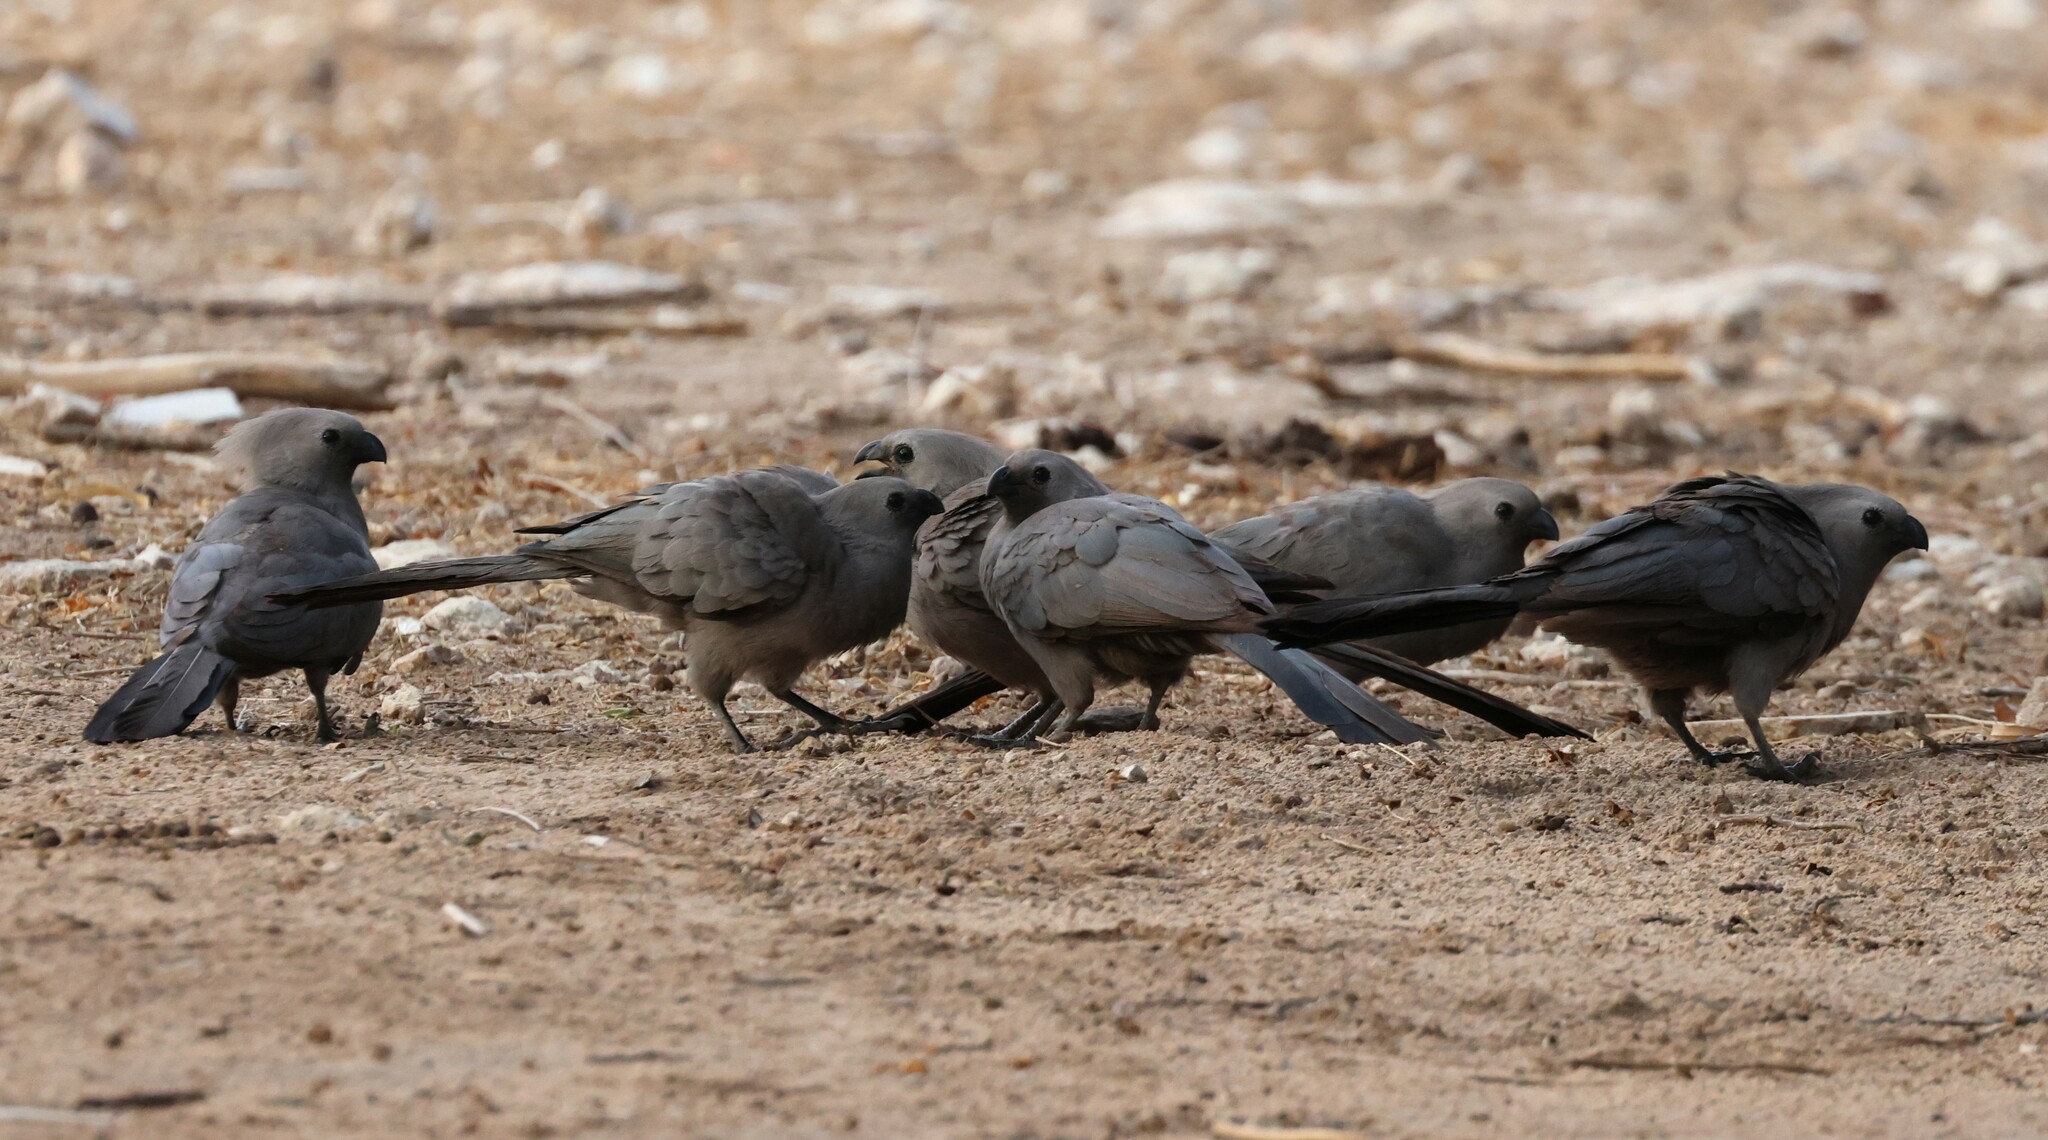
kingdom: Animalia
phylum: Chordata
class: Aves
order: Musophagiformes
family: Musophagidae
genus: Corythaixoides
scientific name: Corythaixoides concolor
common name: Grey go-away-bird
